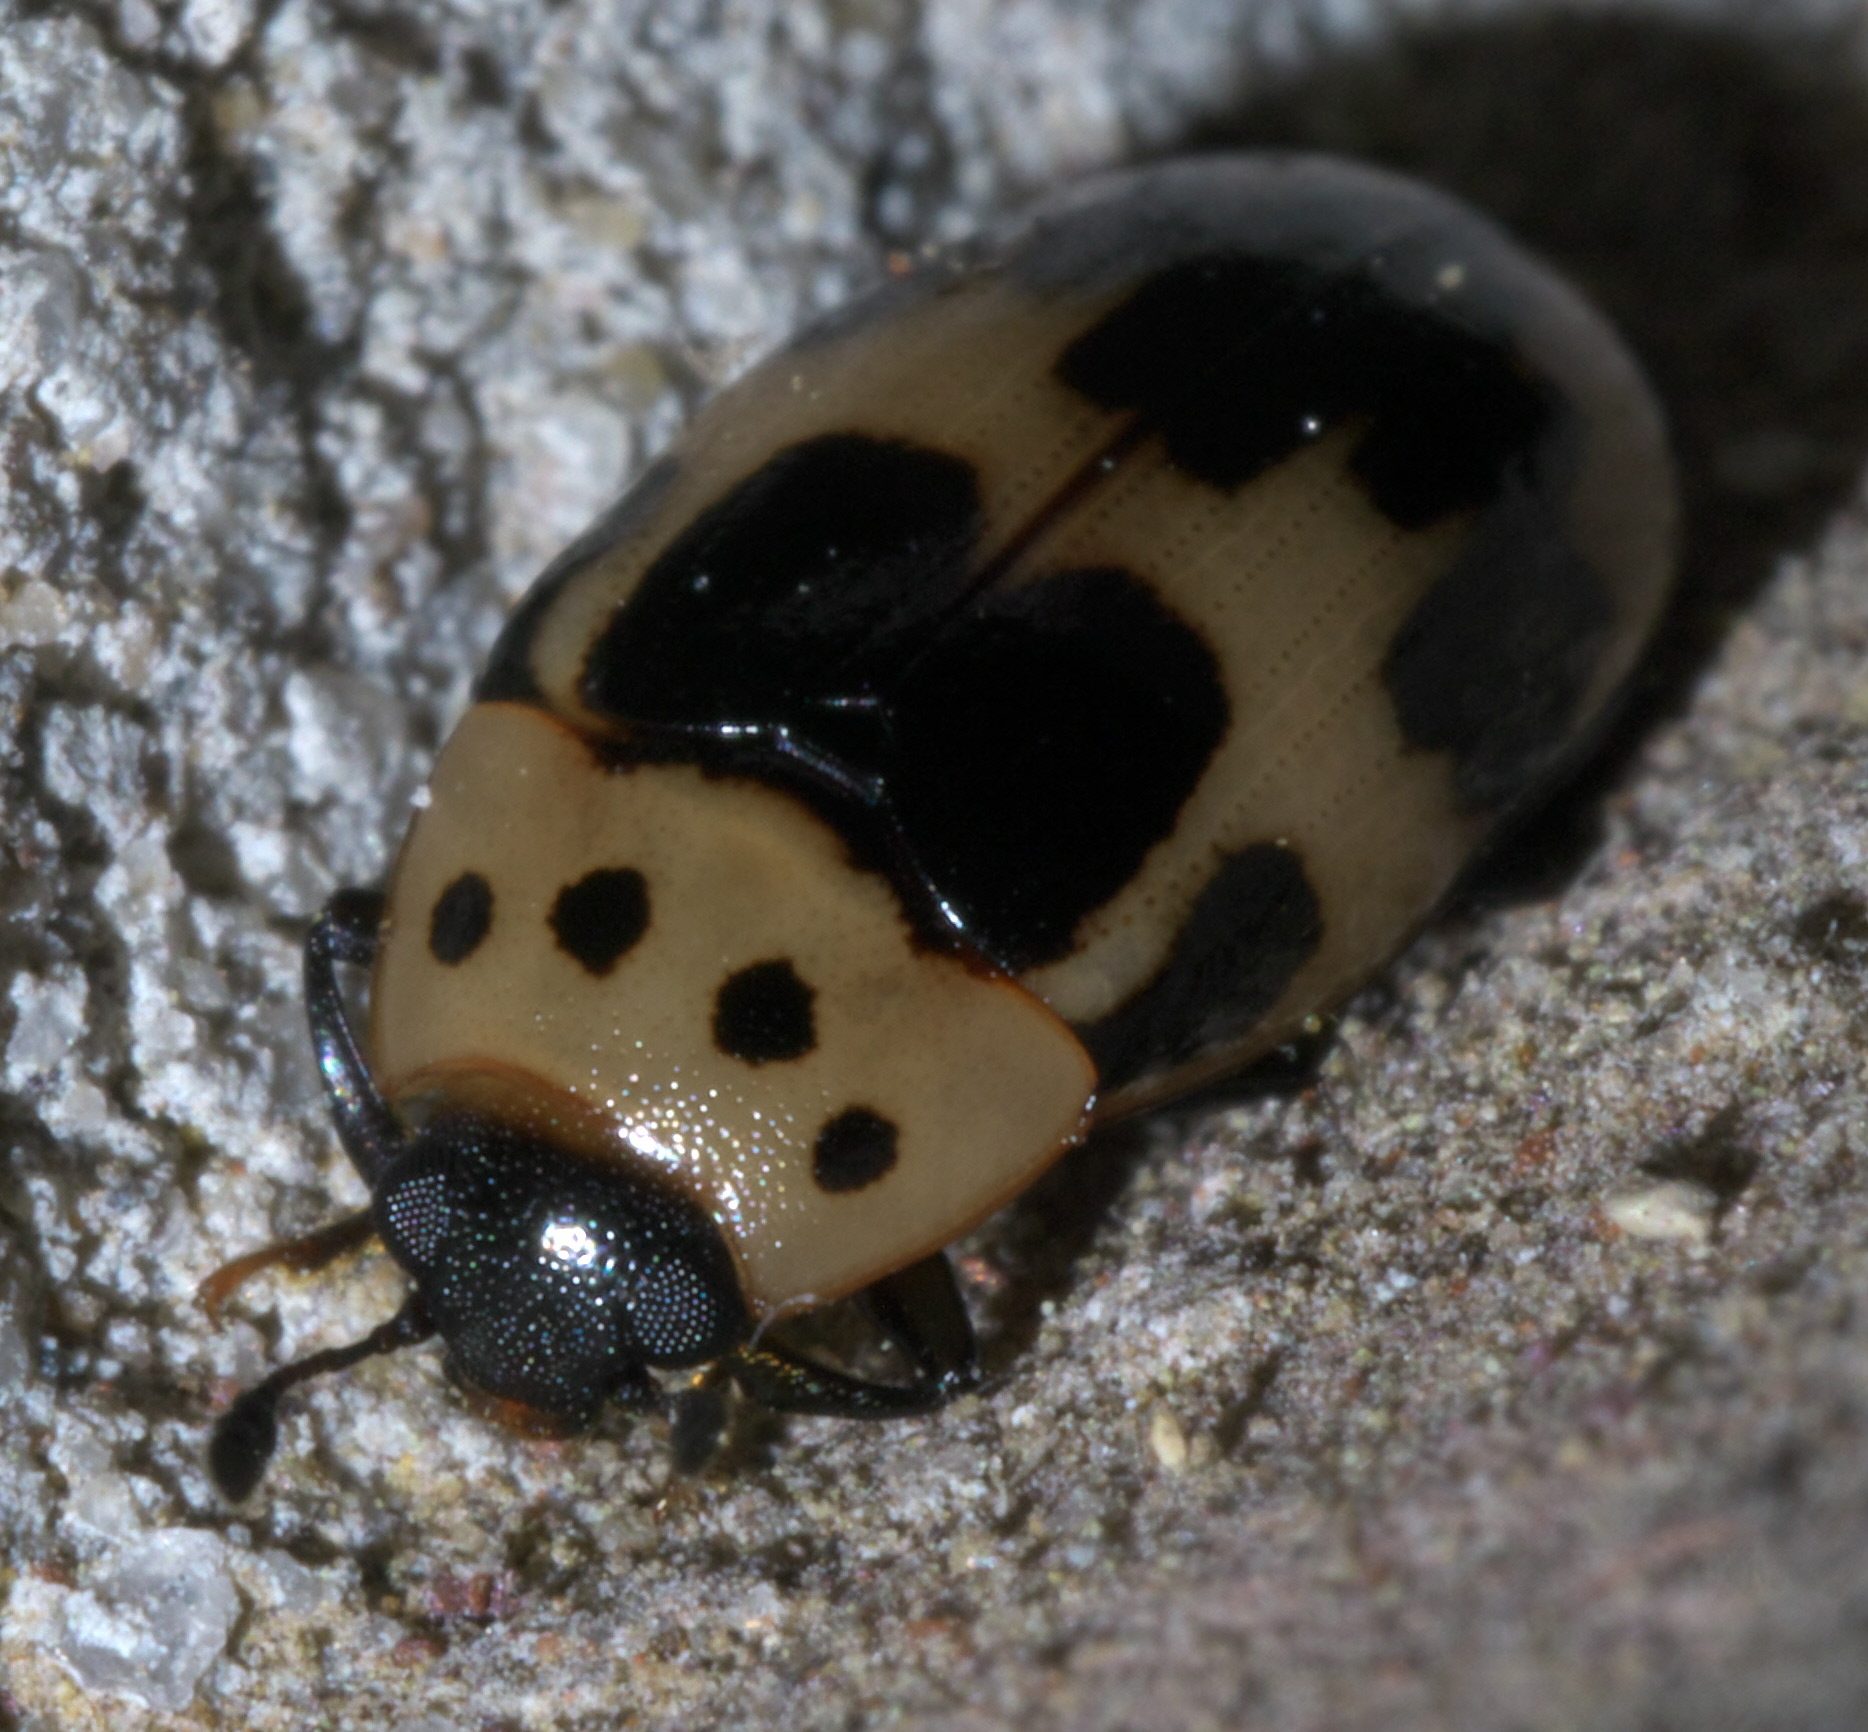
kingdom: Animalia
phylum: Arthropoda
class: Insecta
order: Coleoptera
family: Erotylidae
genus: Ischyrus
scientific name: Ischyrus quadripunctatus
